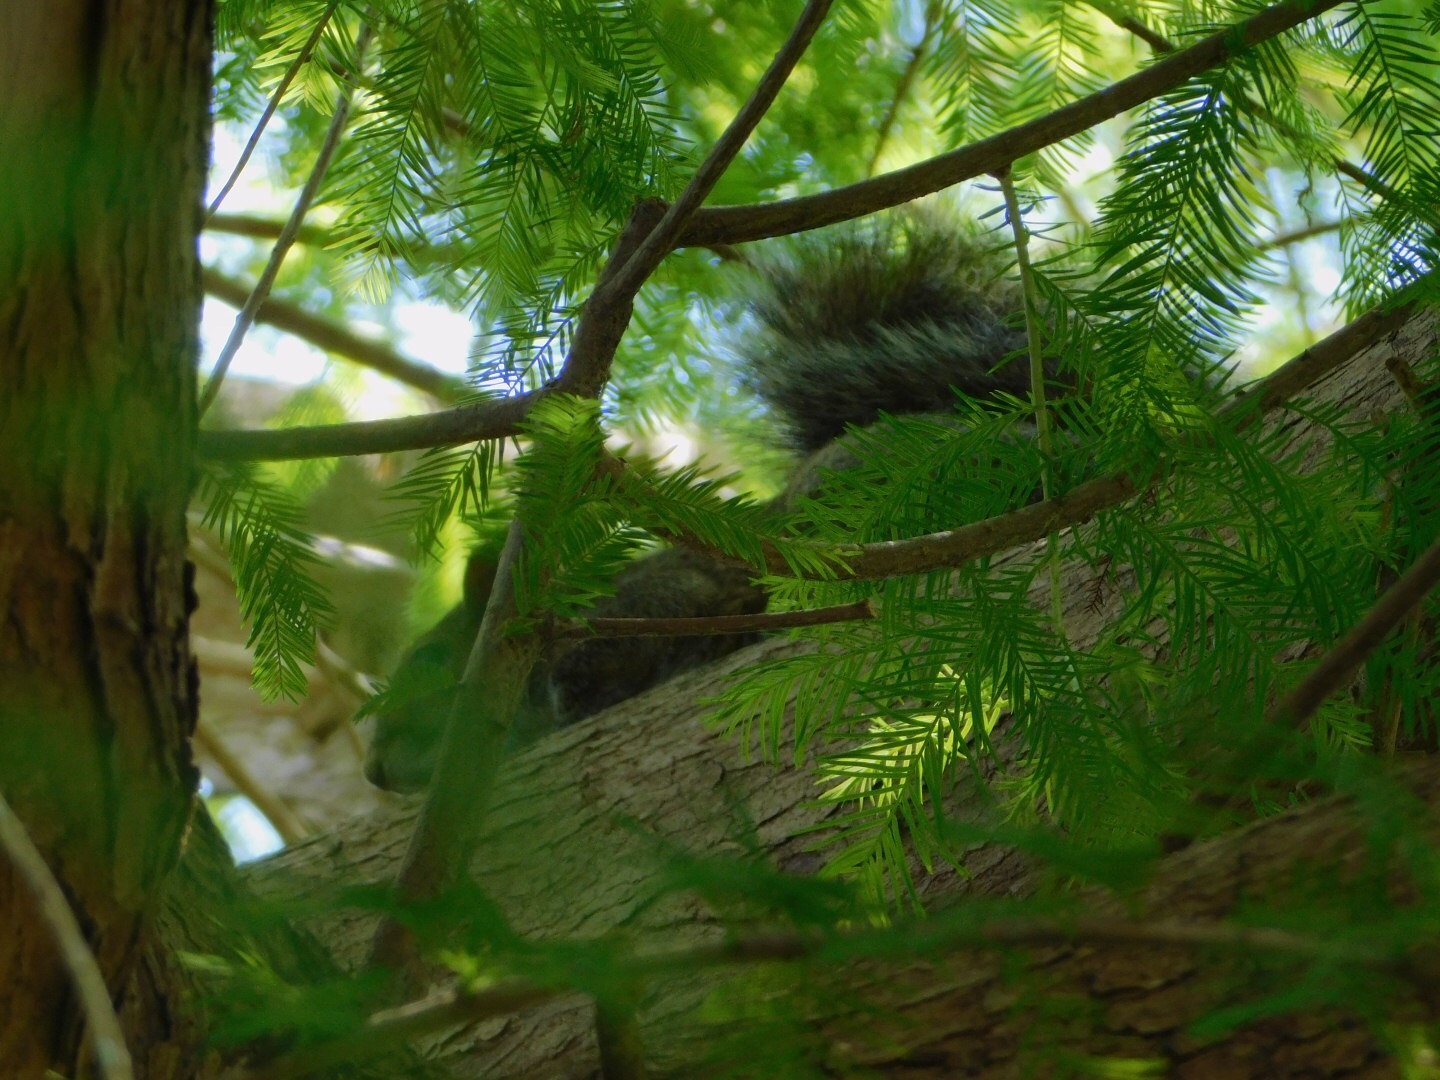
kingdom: Animalia
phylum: Chordata
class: Mammalia
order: Rodentia
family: Sciuridae
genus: Sciurus
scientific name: Sciurus carolinensis
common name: Eastern gray squirrel
